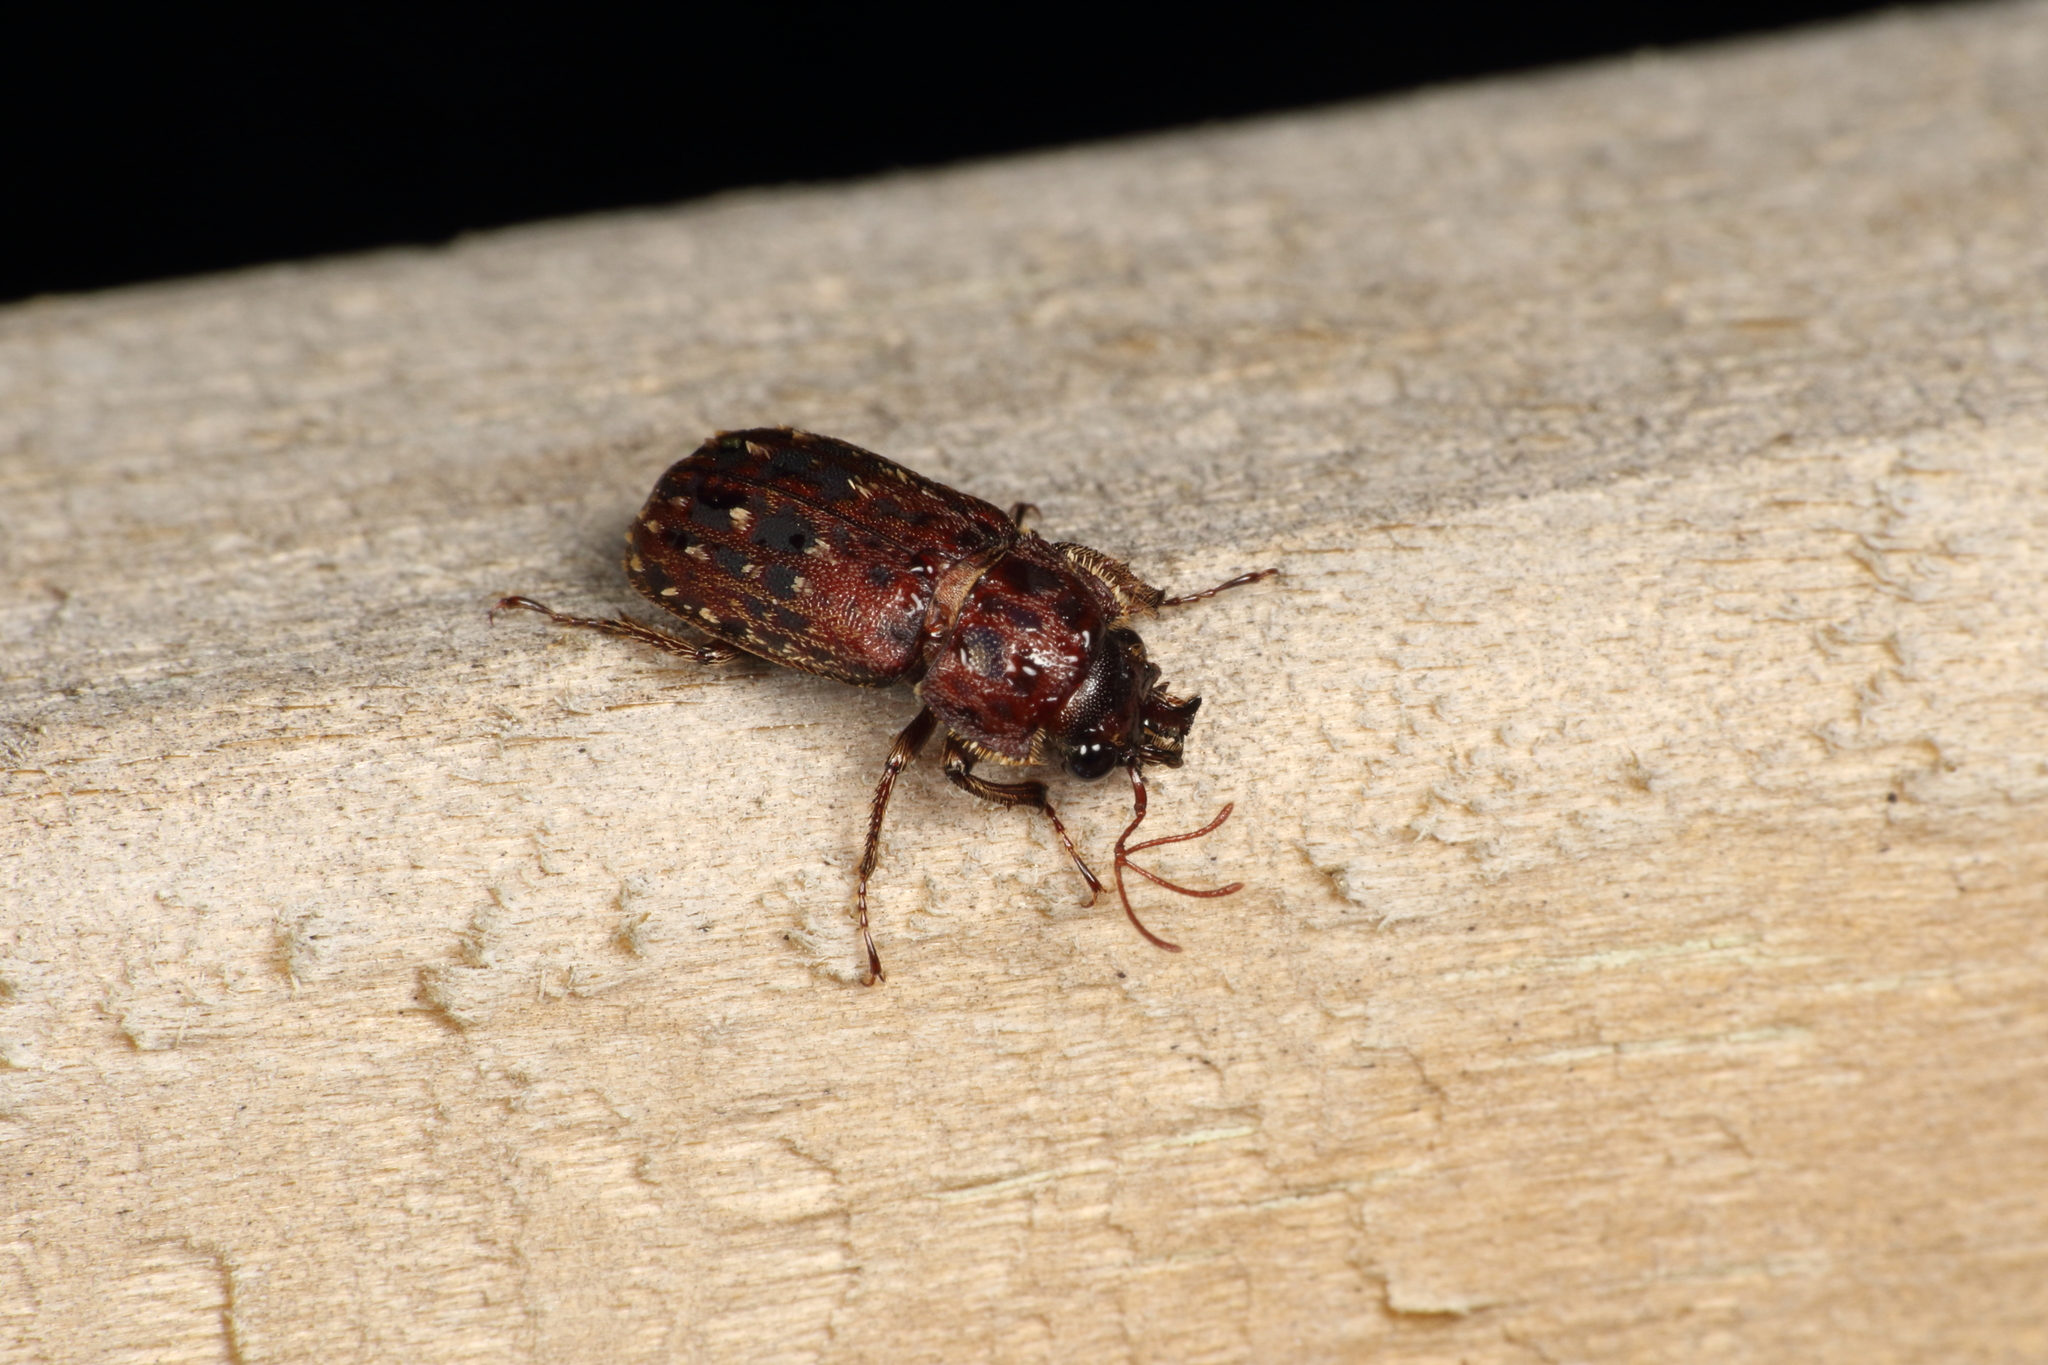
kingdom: Animalia
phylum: Arthropoda
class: Insecta
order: Coleoptera
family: Lucanidae
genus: Mitophyllus
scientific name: Mitophyllus irroratus
